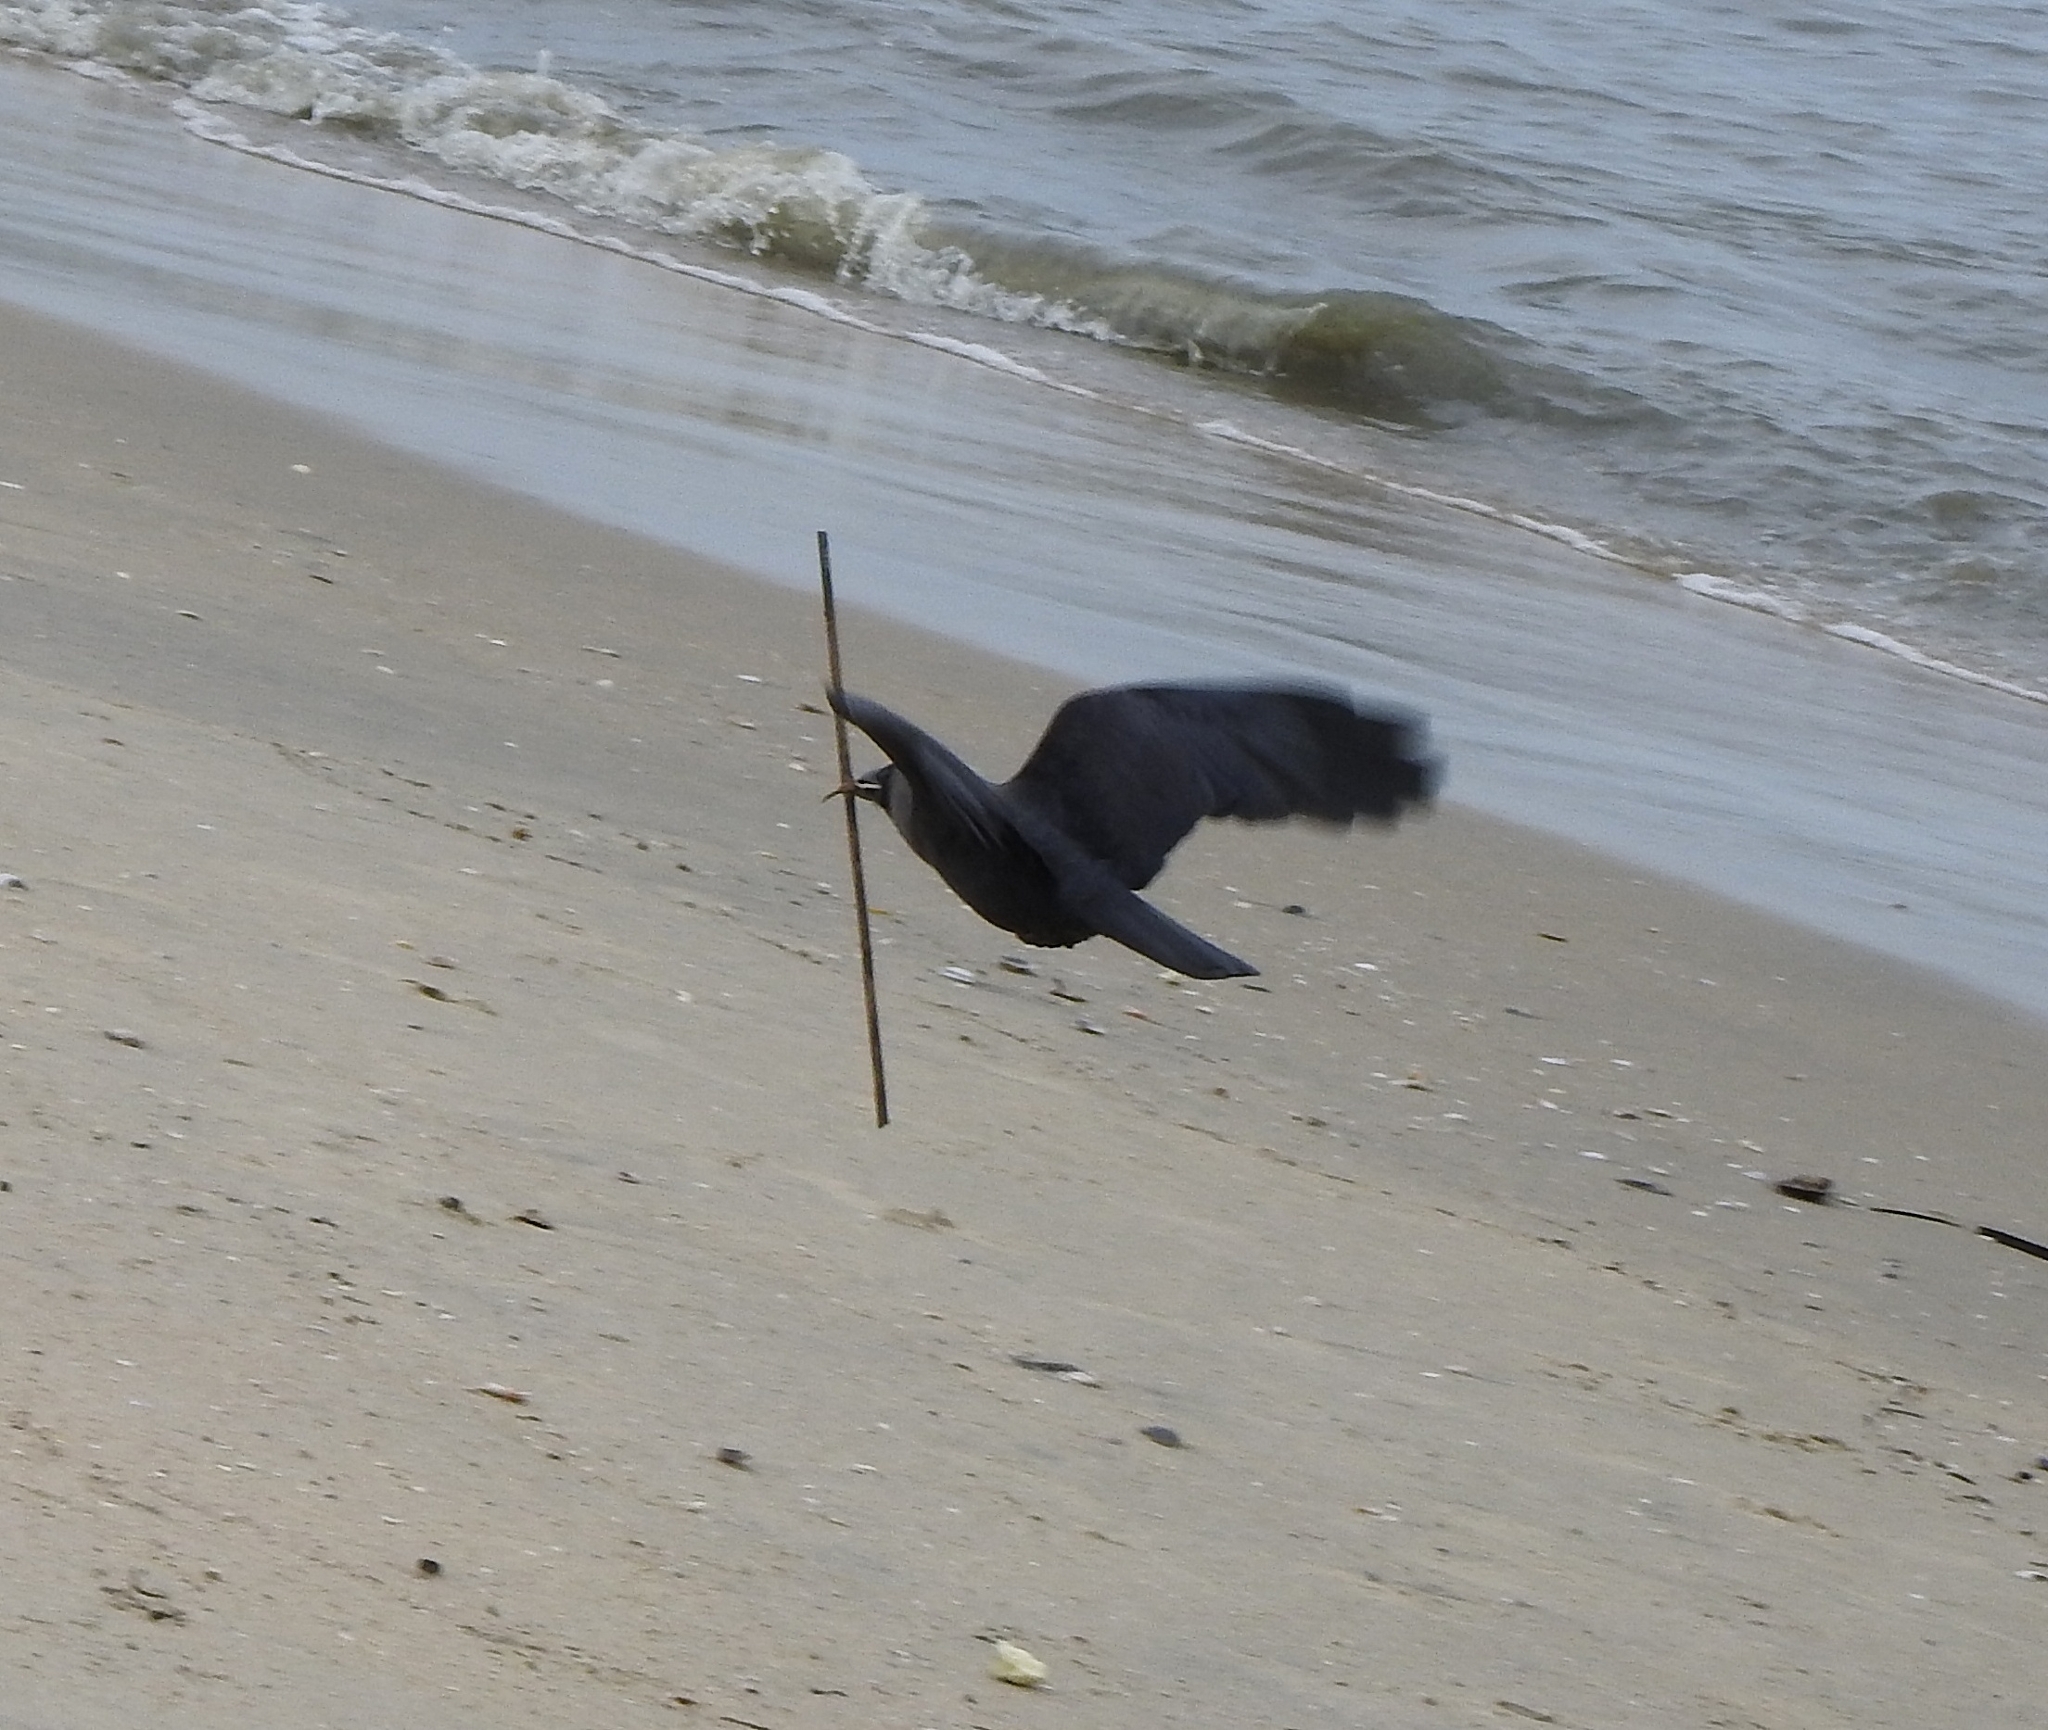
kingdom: Animalia
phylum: Chordata
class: Aves
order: Passeriformes
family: Corvidae
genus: Corvus
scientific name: Corvus splendens
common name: House crow
